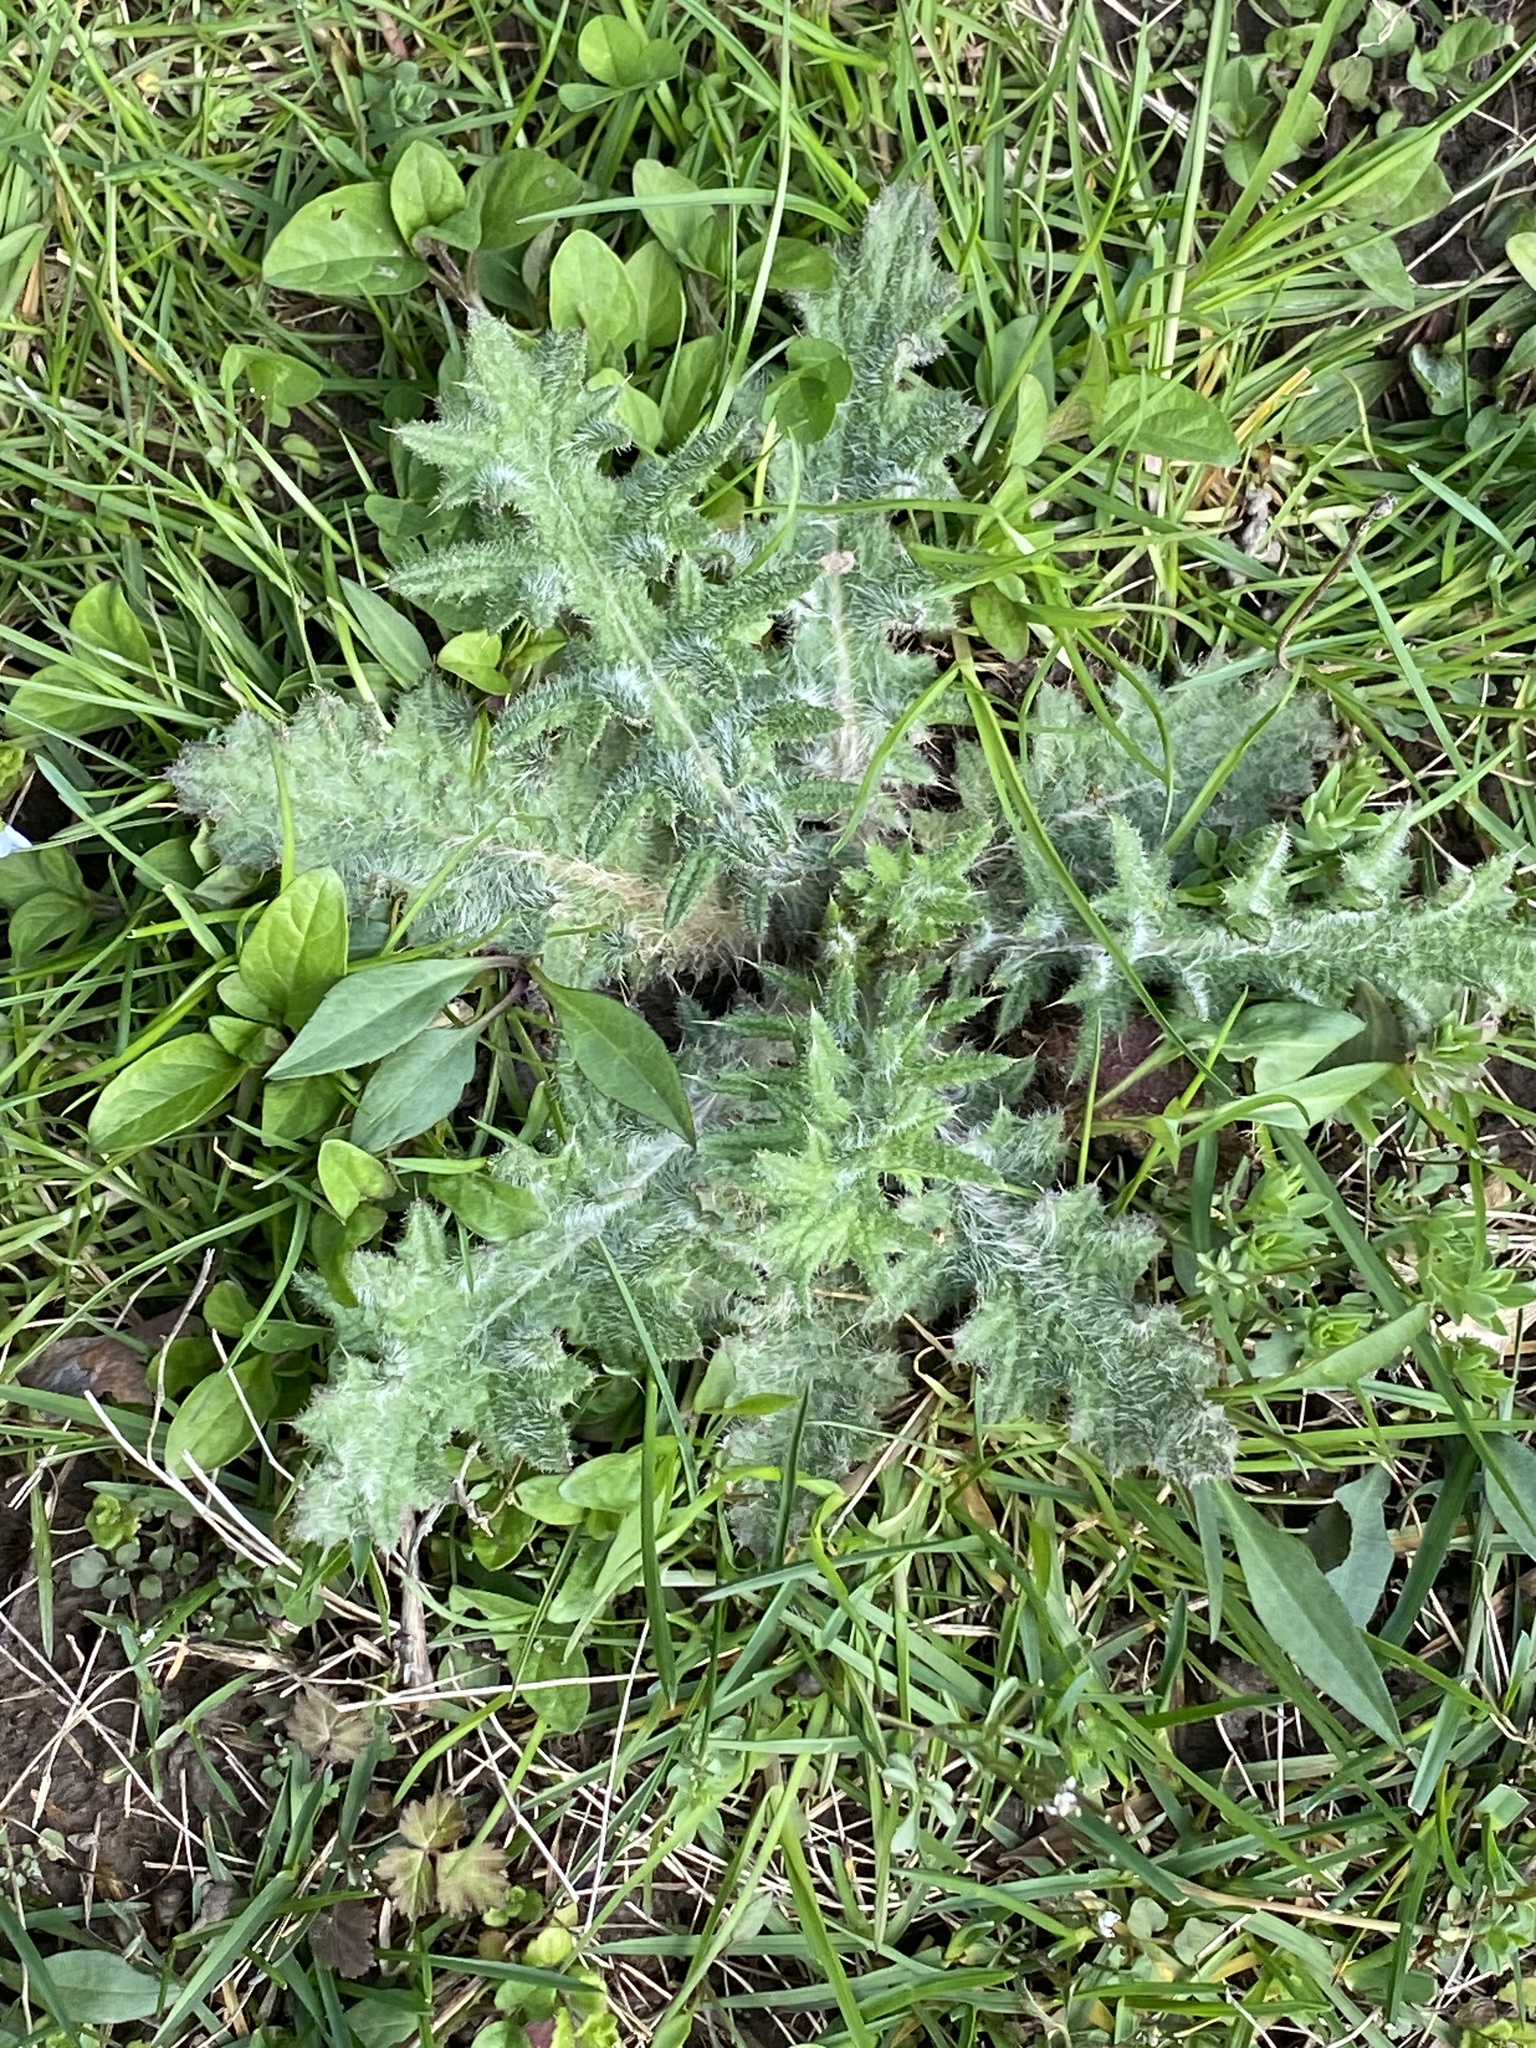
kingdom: Plantae
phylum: Tracheophyta
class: Magnoliopsida
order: Asterales
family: Asteraceae
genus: Cirsium
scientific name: Cirsium vulgare
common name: Bull thistle
